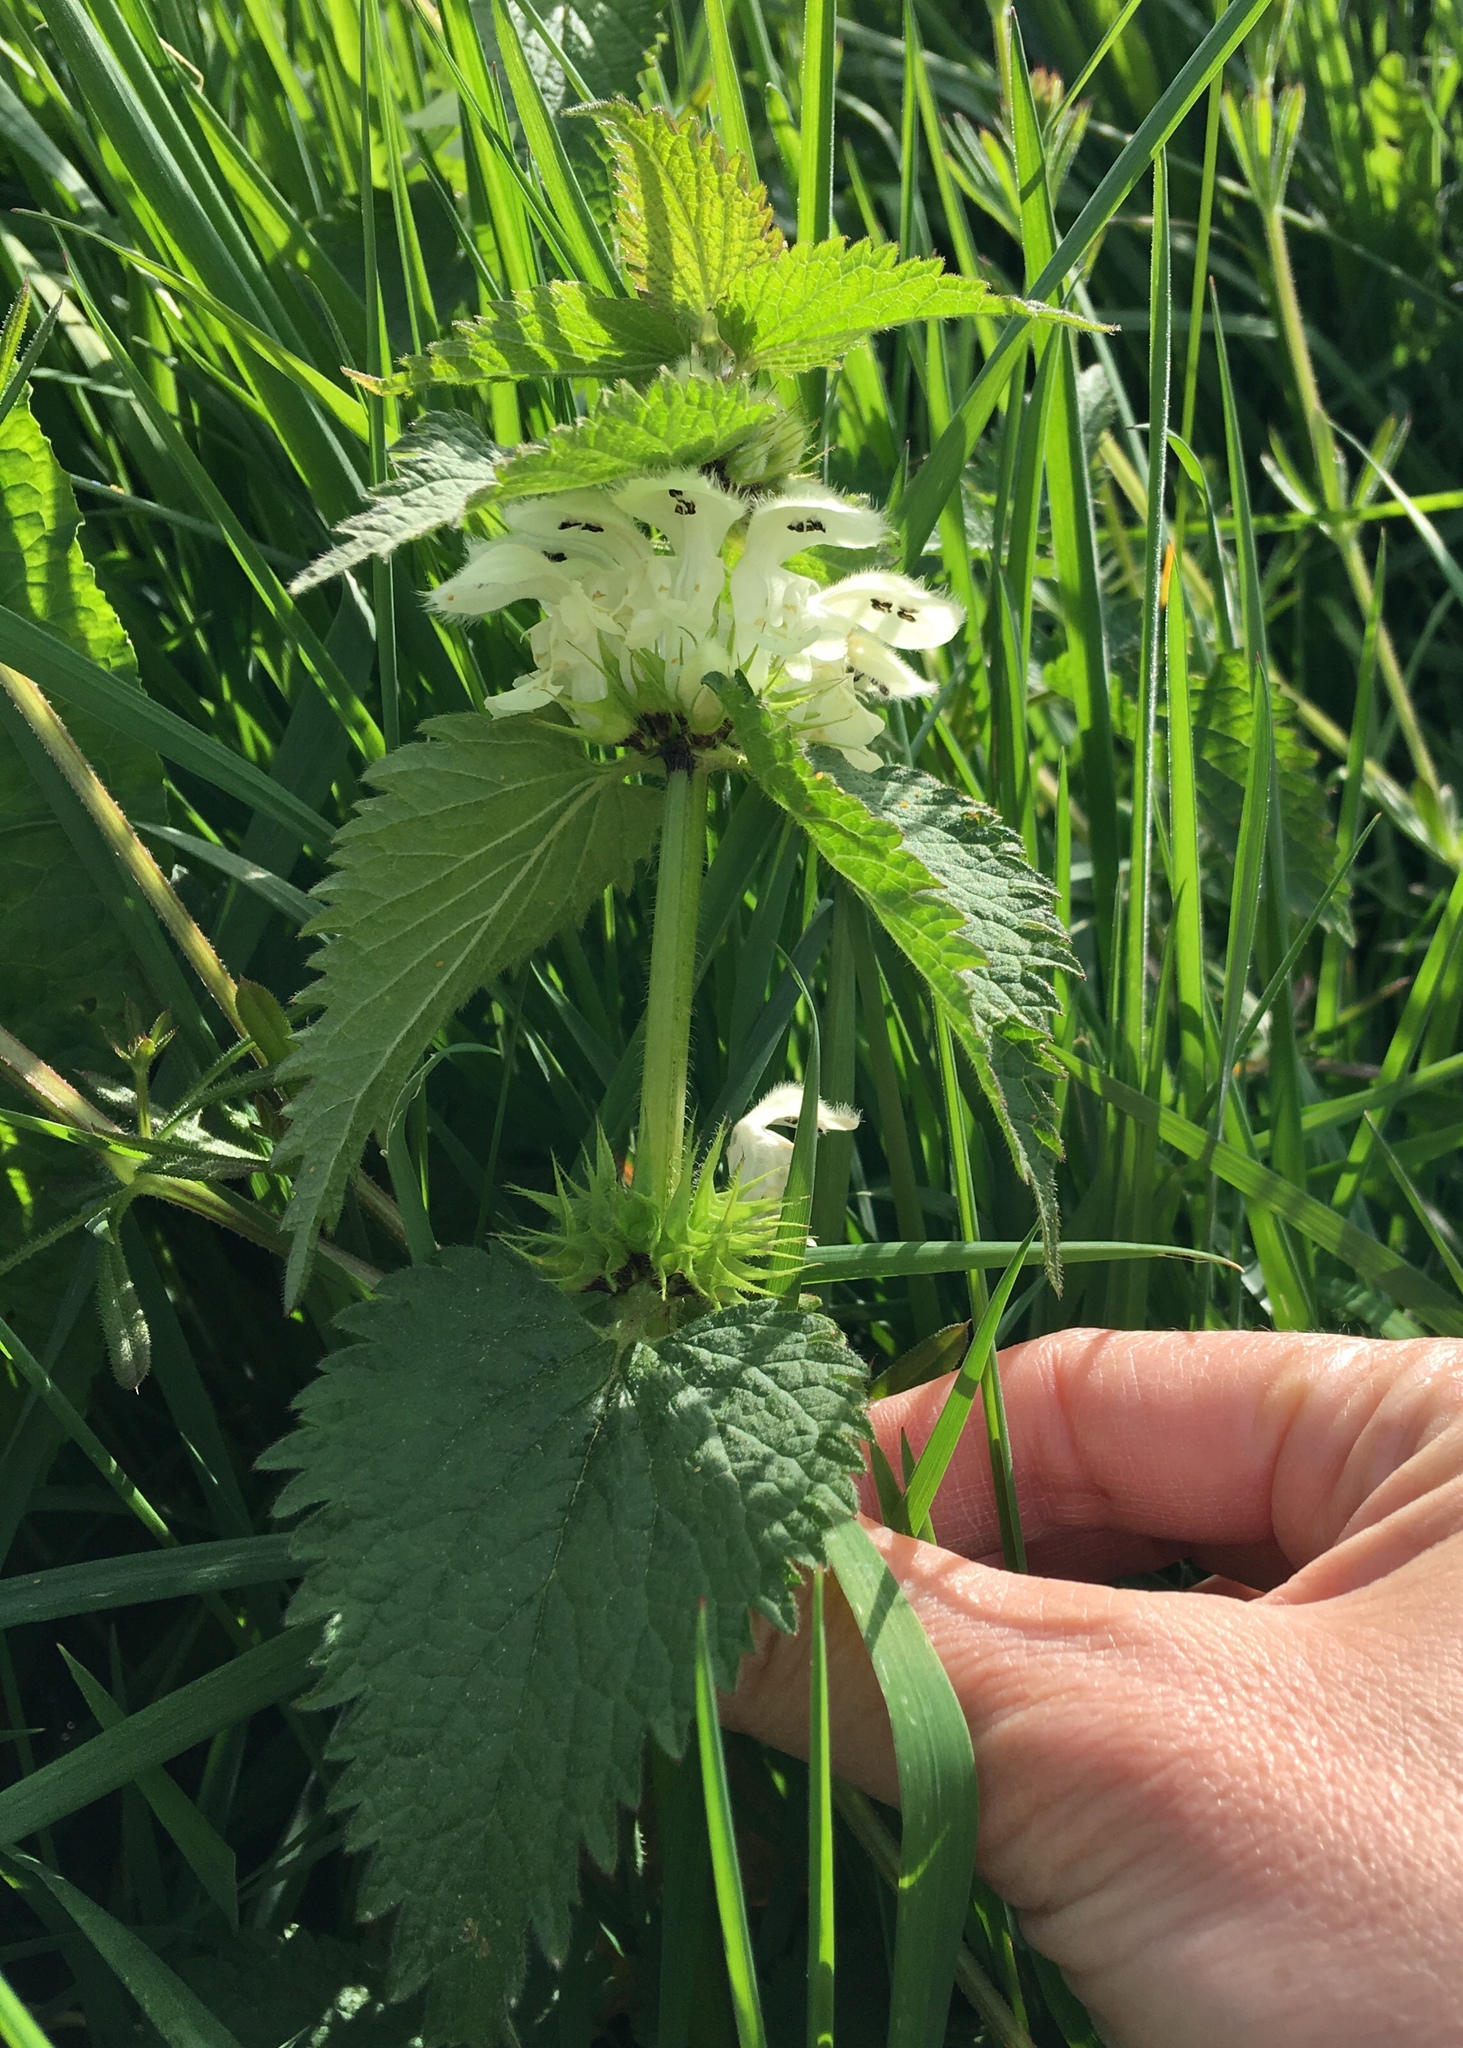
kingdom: Plantae
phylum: Tracheophyta
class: Magnoliopsida
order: Lamiales
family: Lamiaceae
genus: Lamium
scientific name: Lamium album
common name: White dead-nettle
